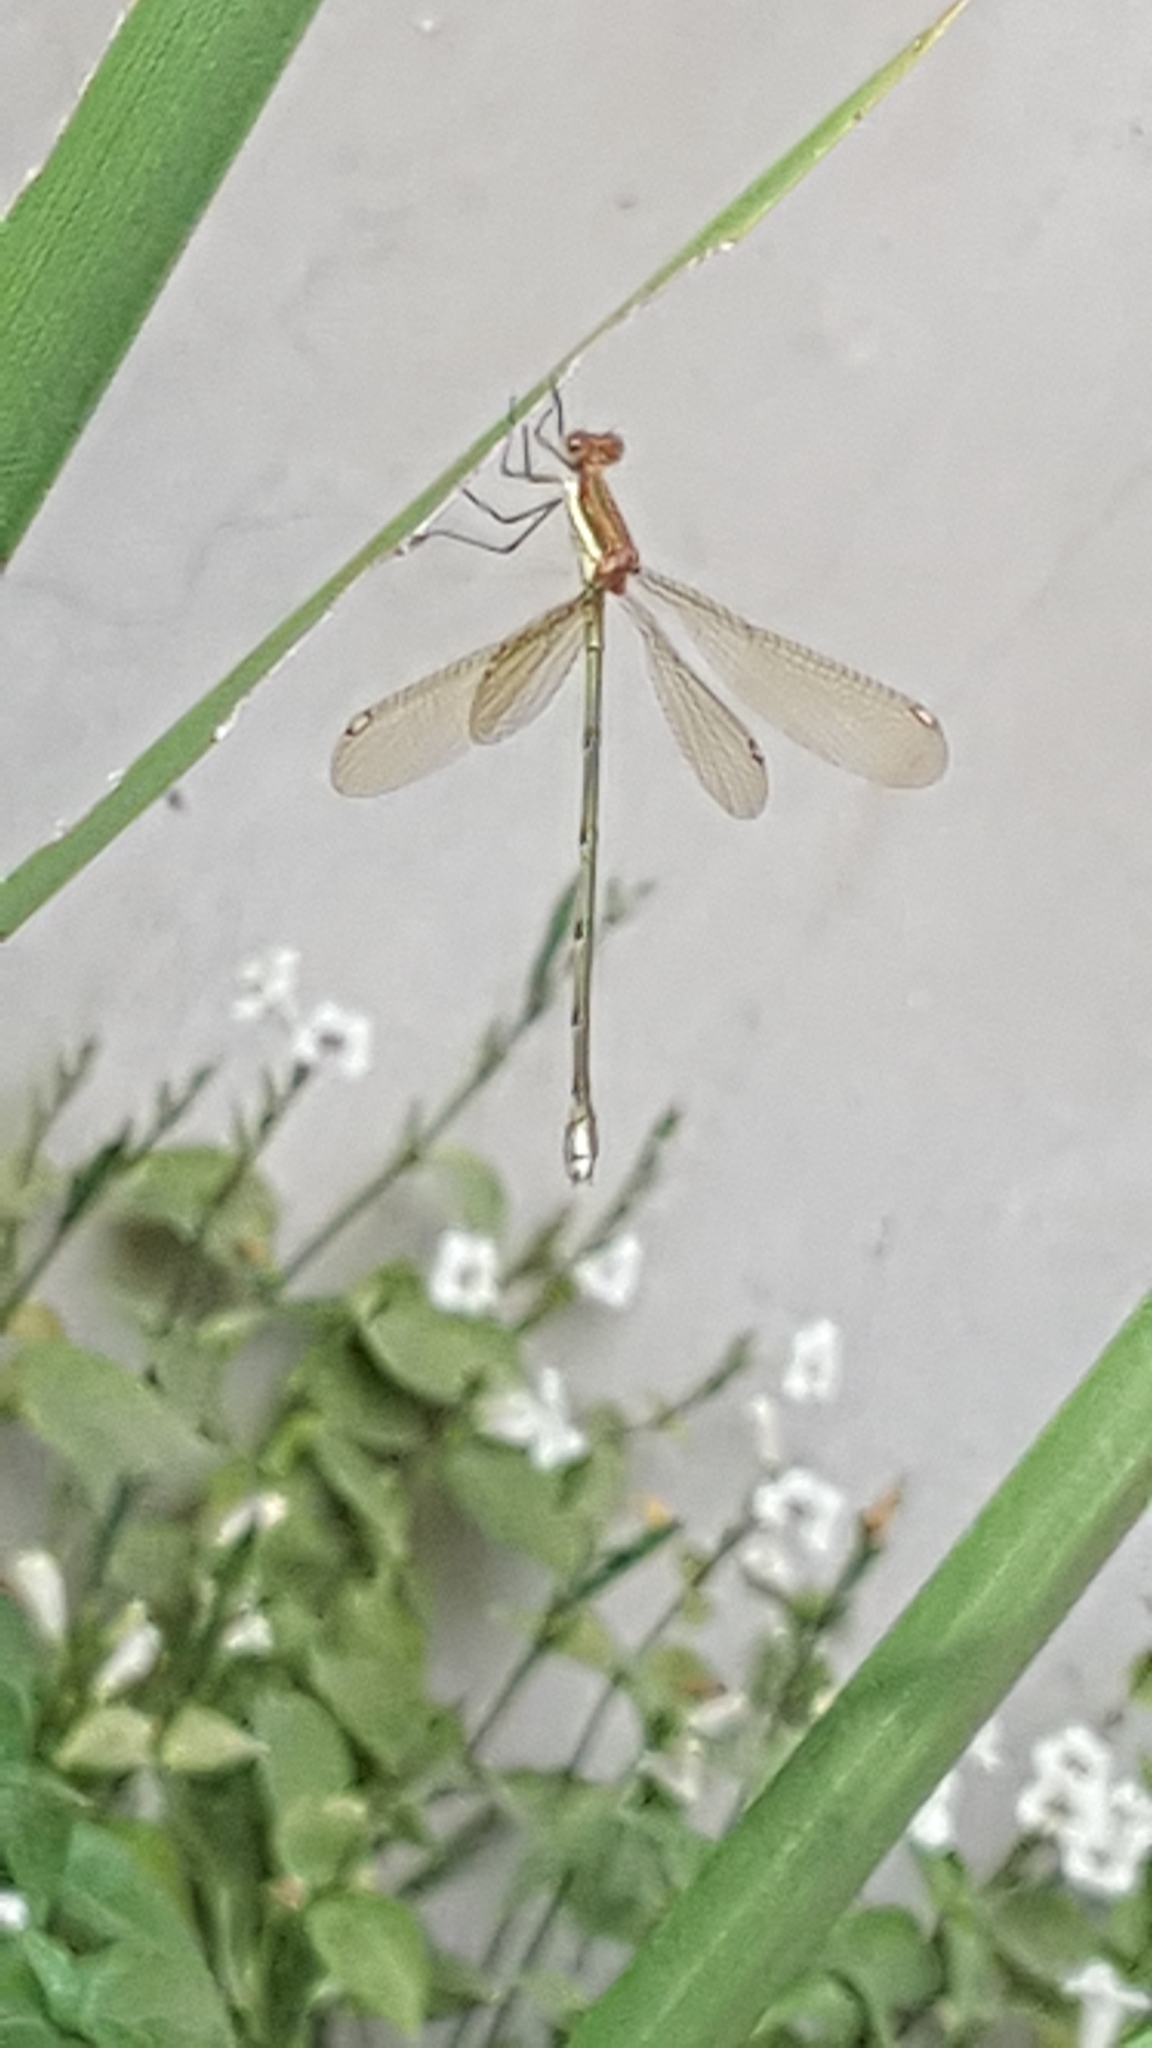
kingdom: Animalia
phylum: Arthropoda
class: Insecta
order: Odonata
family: Lestidae
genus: Lestes
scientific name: Lestes virgatus
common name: Smoky spreadwing
